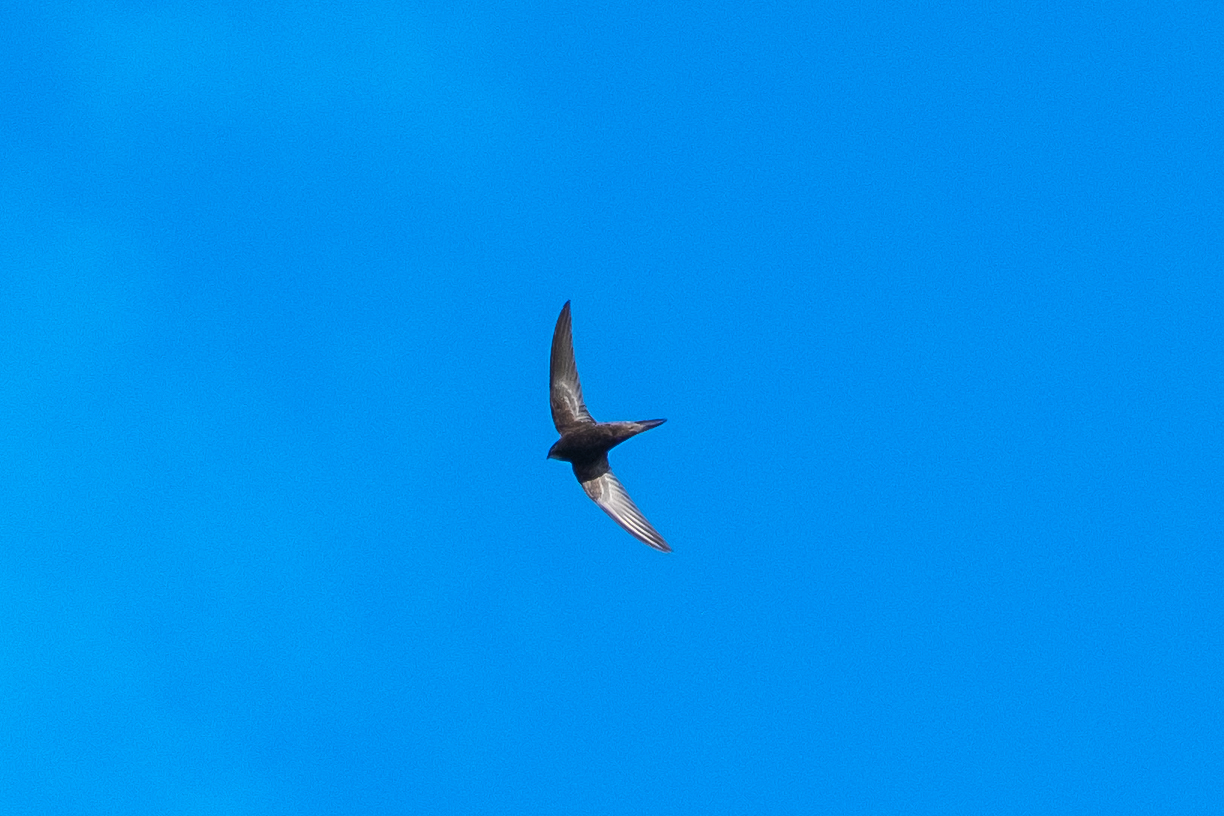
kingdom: Animalia
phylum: Chordata
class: Aves
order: Apodiformes
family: Apodidae
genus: Apus
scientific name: Apus apus
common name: Common swift
